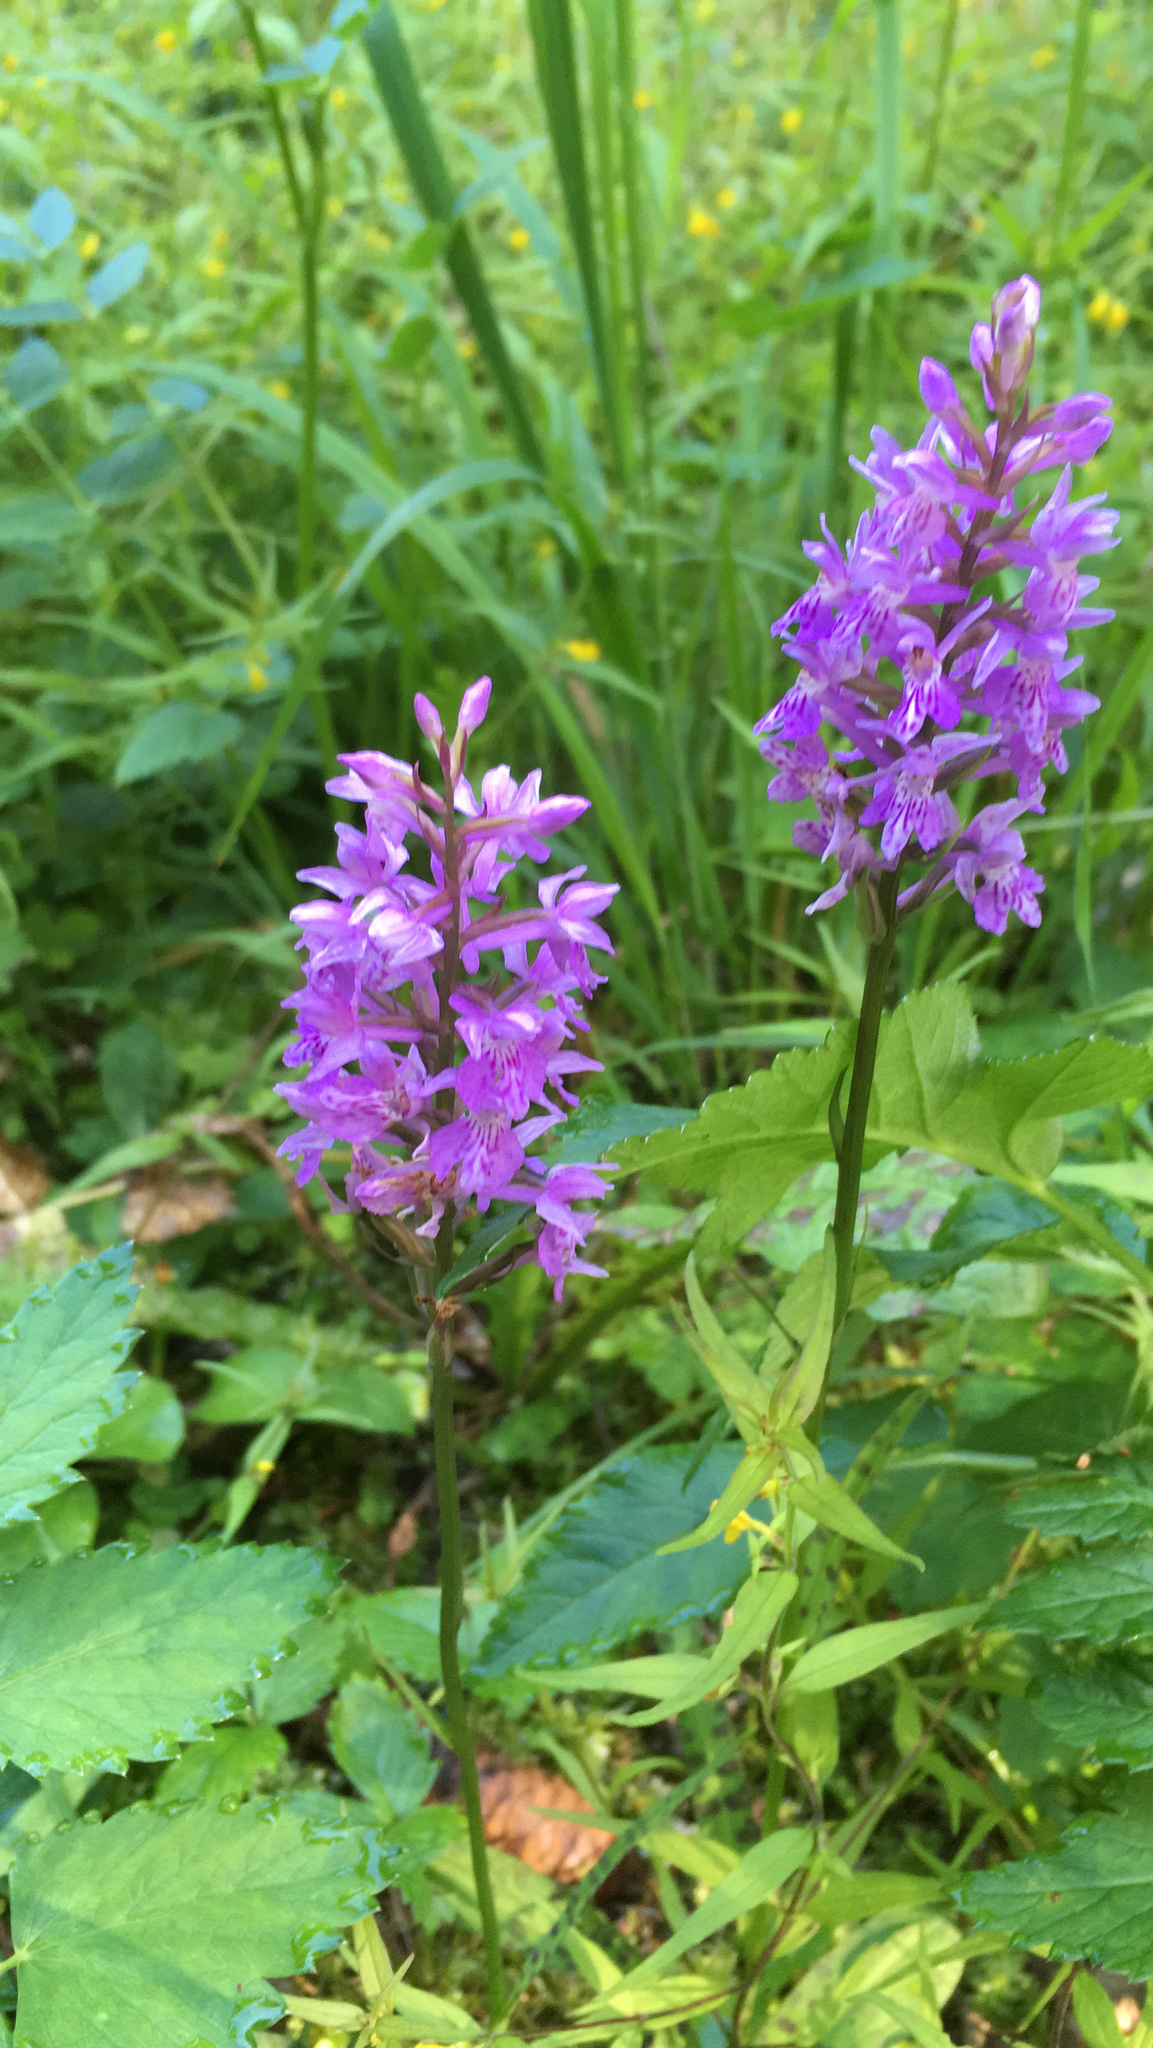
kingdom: Plantae
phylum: Tracheophyta
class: Liliopsida
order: Asparagales
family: Orchidaceae
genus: Dactylorhiza
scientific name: Dactylorhiza maculata
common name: Heath spotted-orchid
